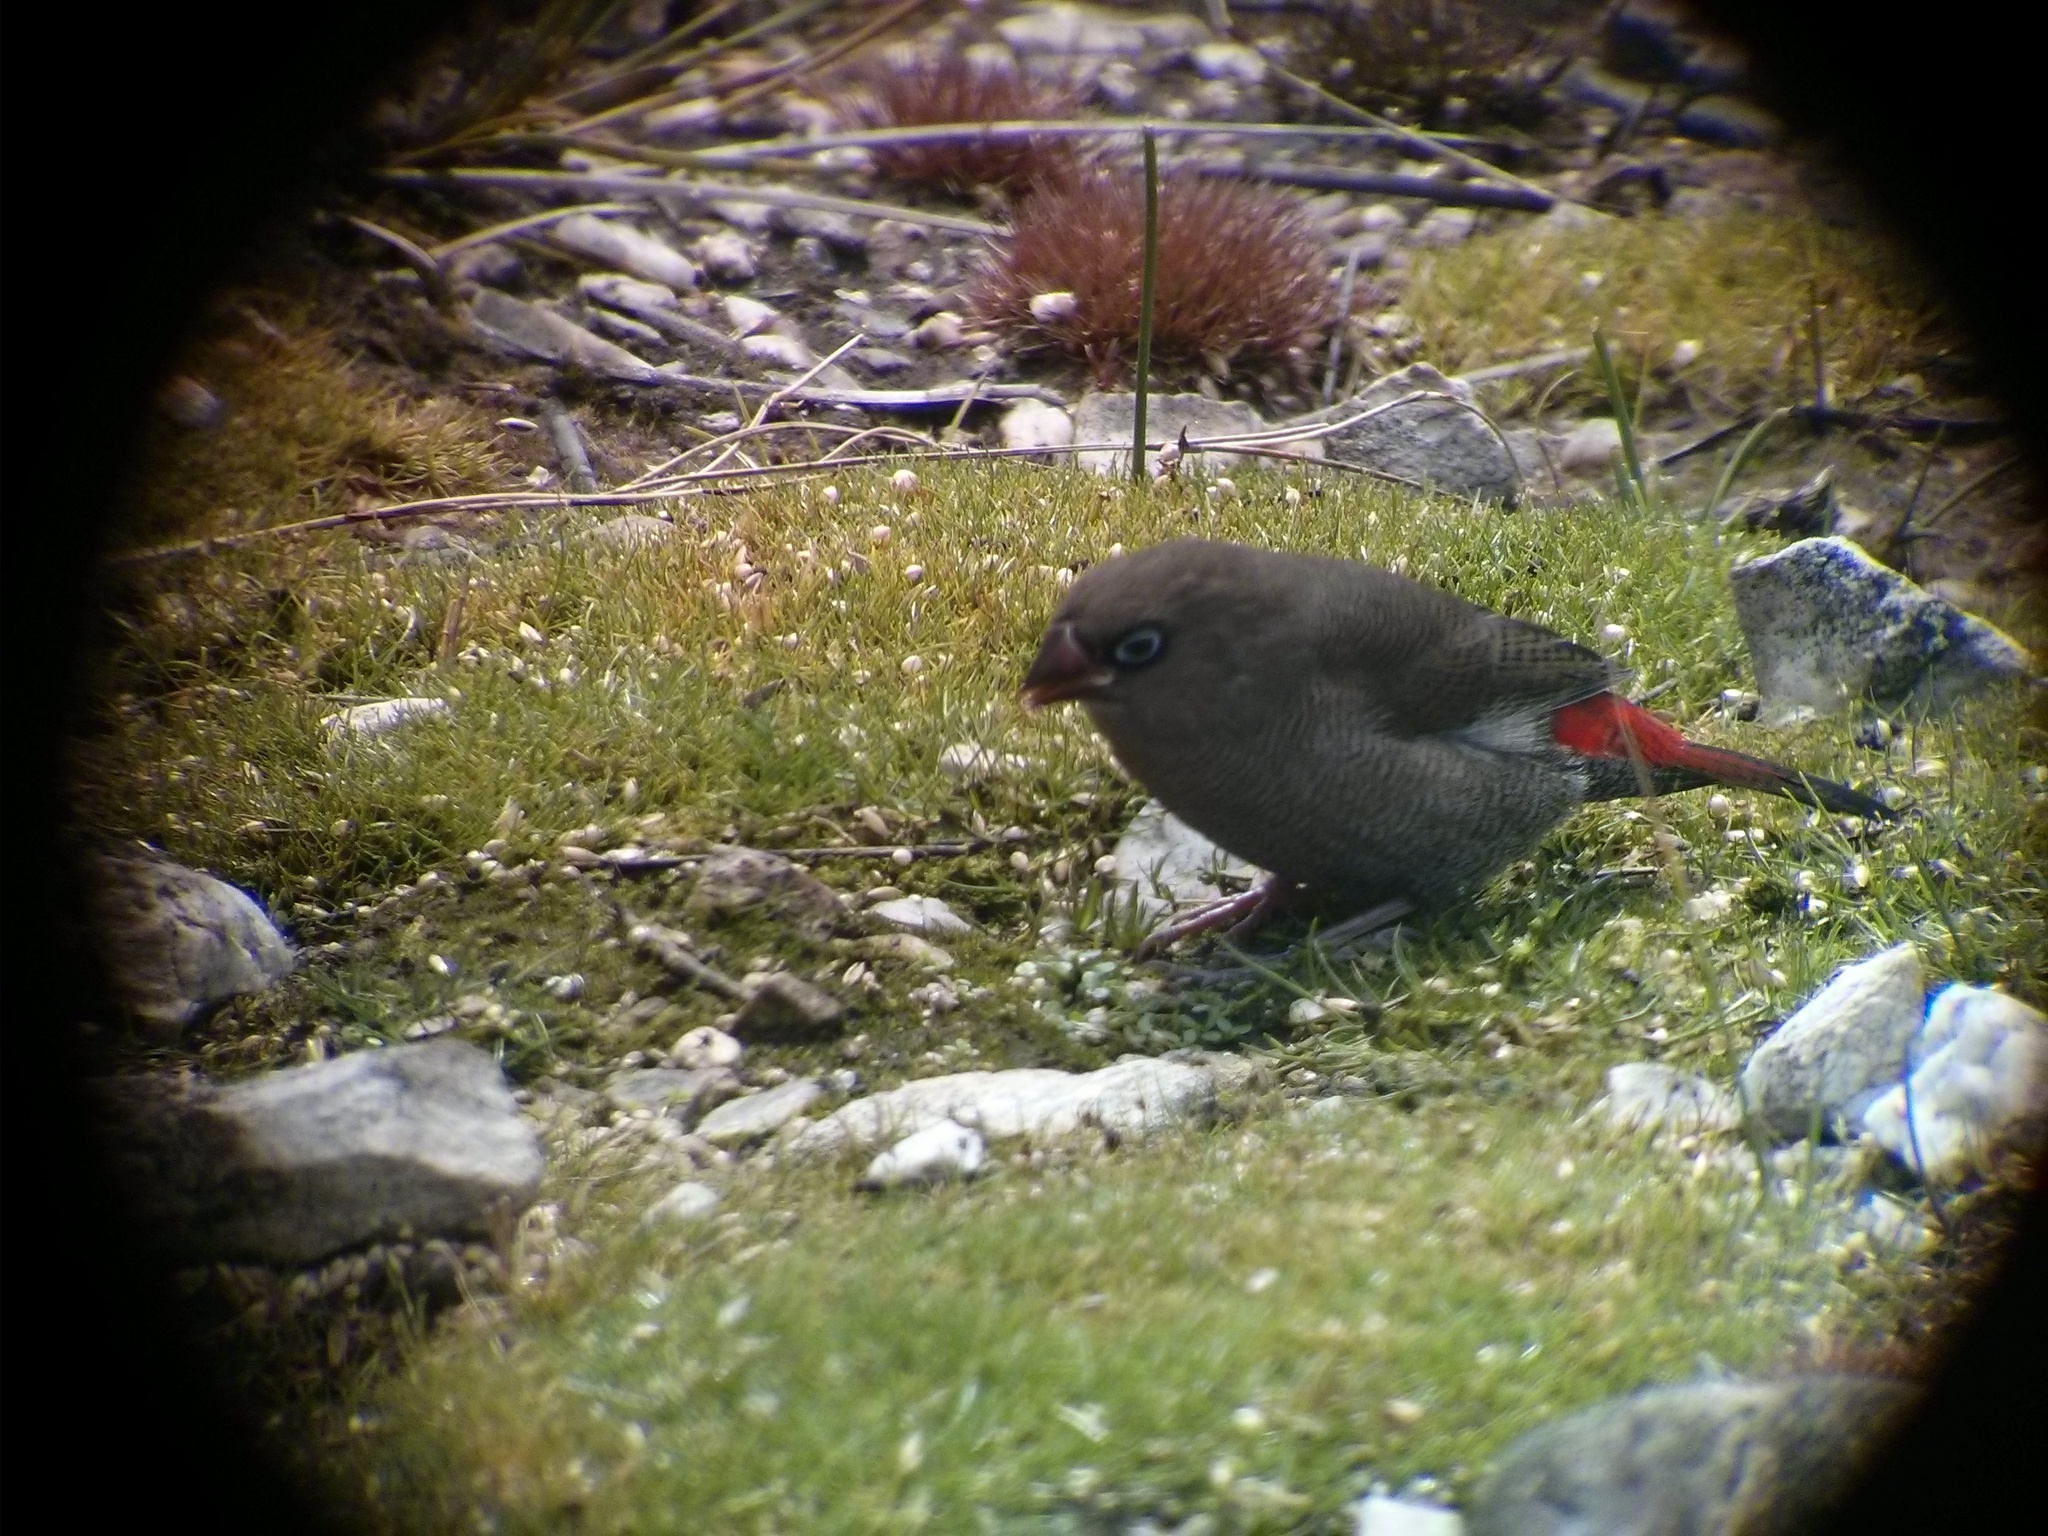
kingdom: Animalia
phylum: Chordata
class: Aves
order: Passeriformes
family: Estrildidae
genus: Stagonopleura
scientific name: Stagonopleura bella
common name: Beautiful firetail
